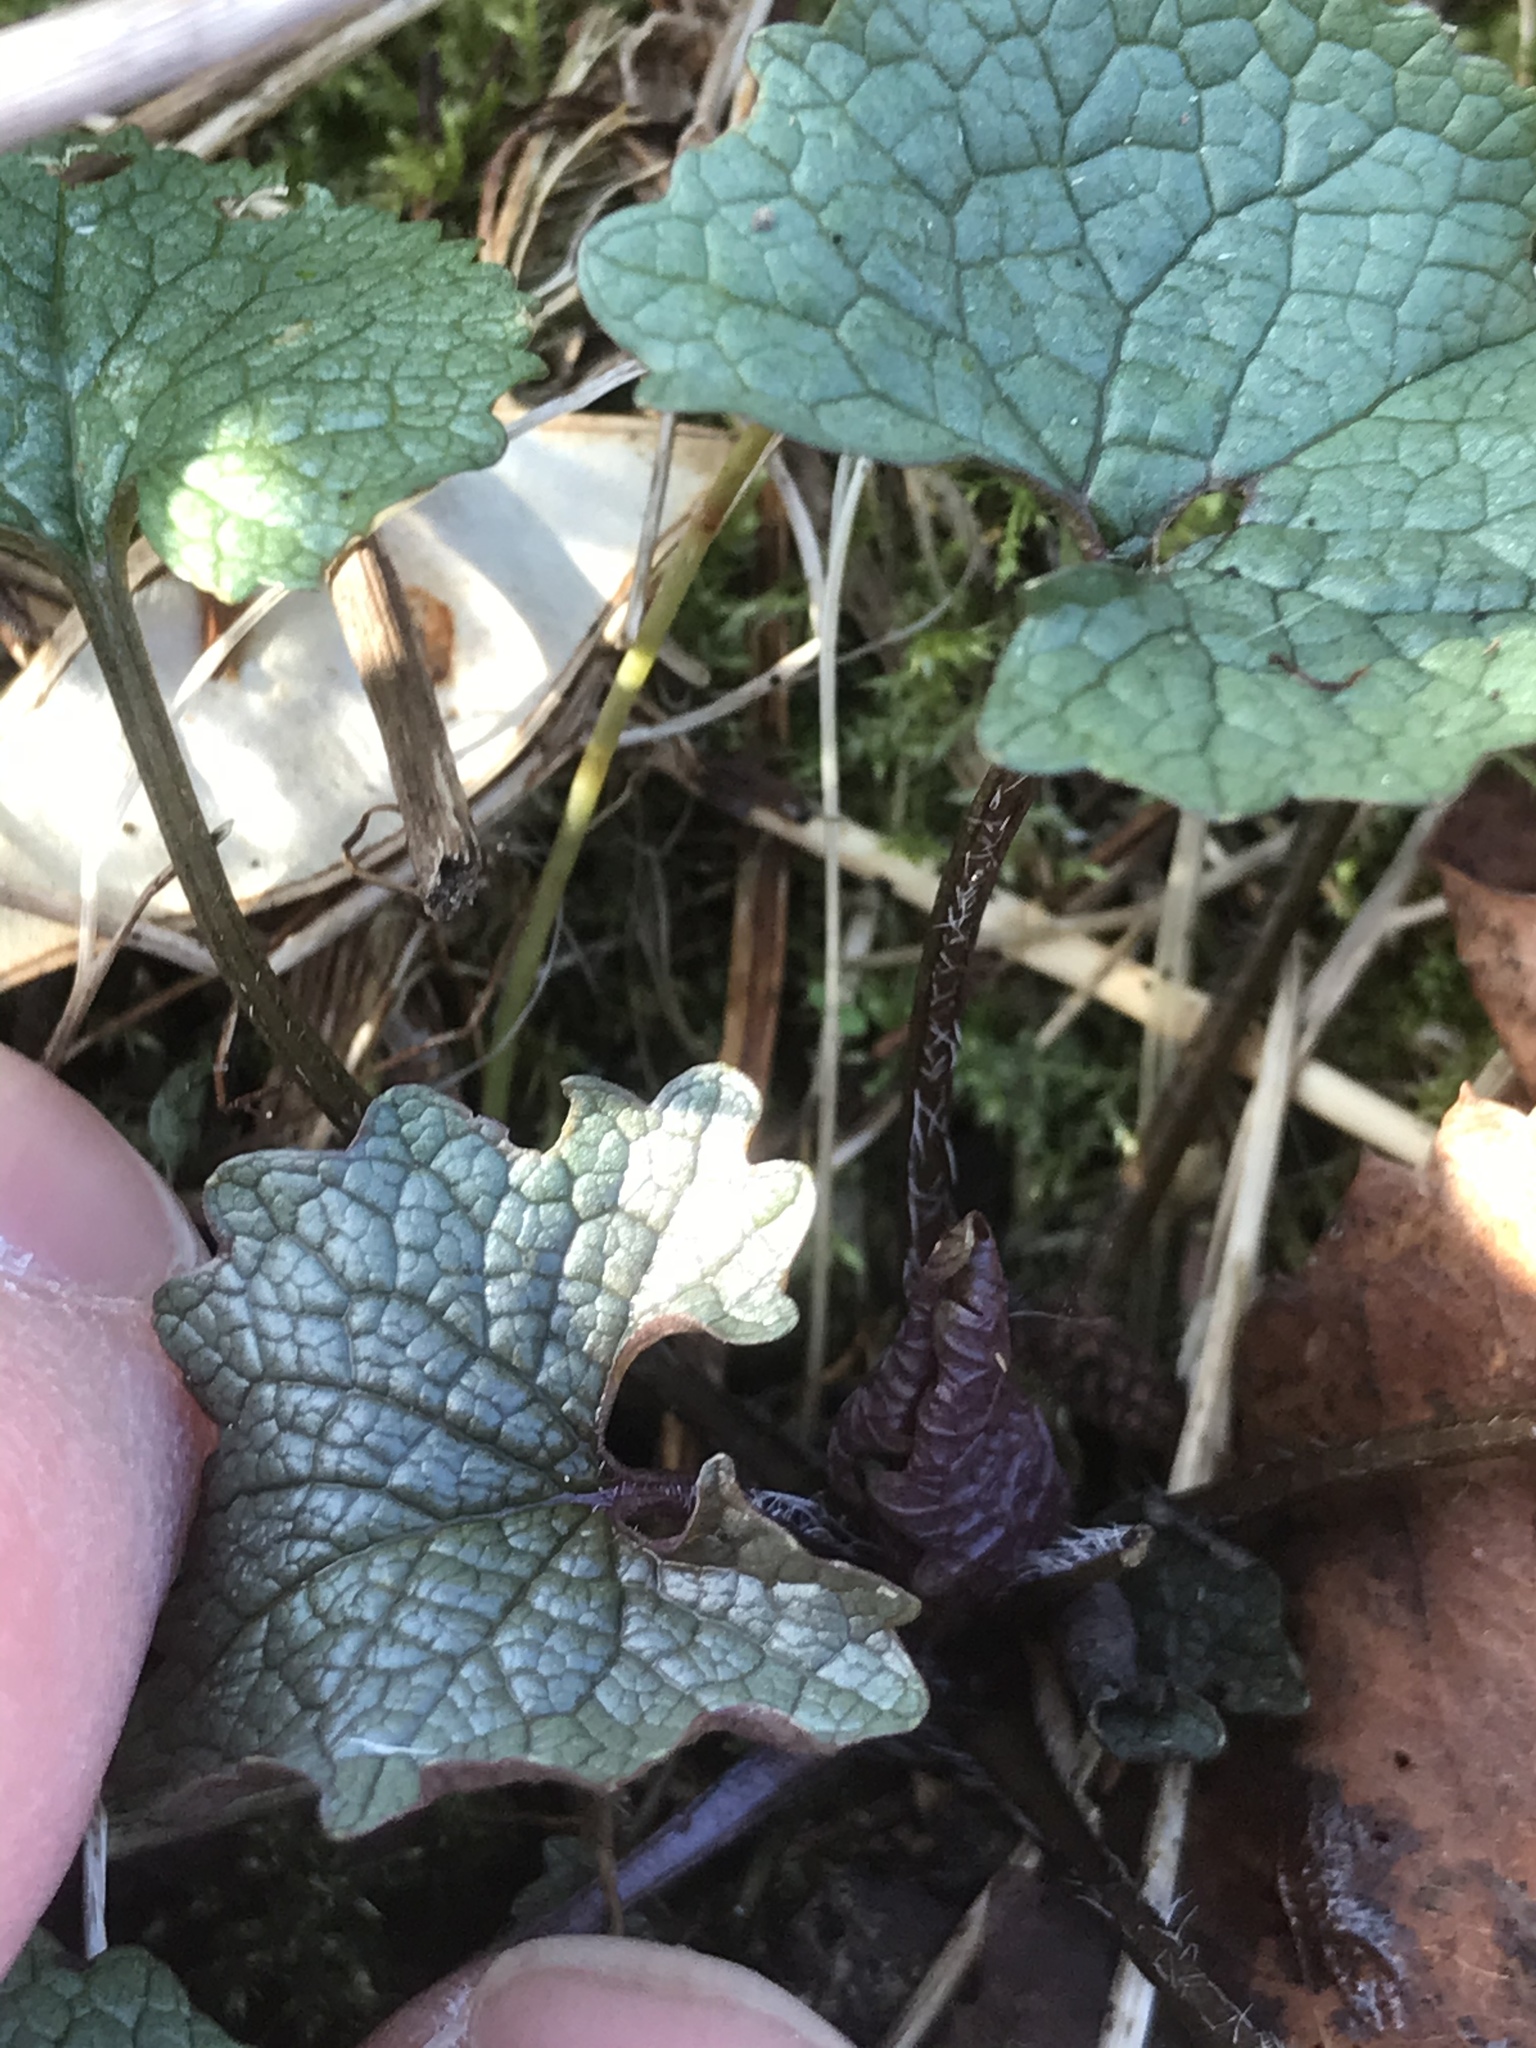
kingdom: Plantae
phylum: Tracheophyta
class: Magnoliopsida
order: Brassicales
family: Brassicaceae
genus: Alliaria
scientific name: Alliaria petiolata
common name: Garlic mustard
